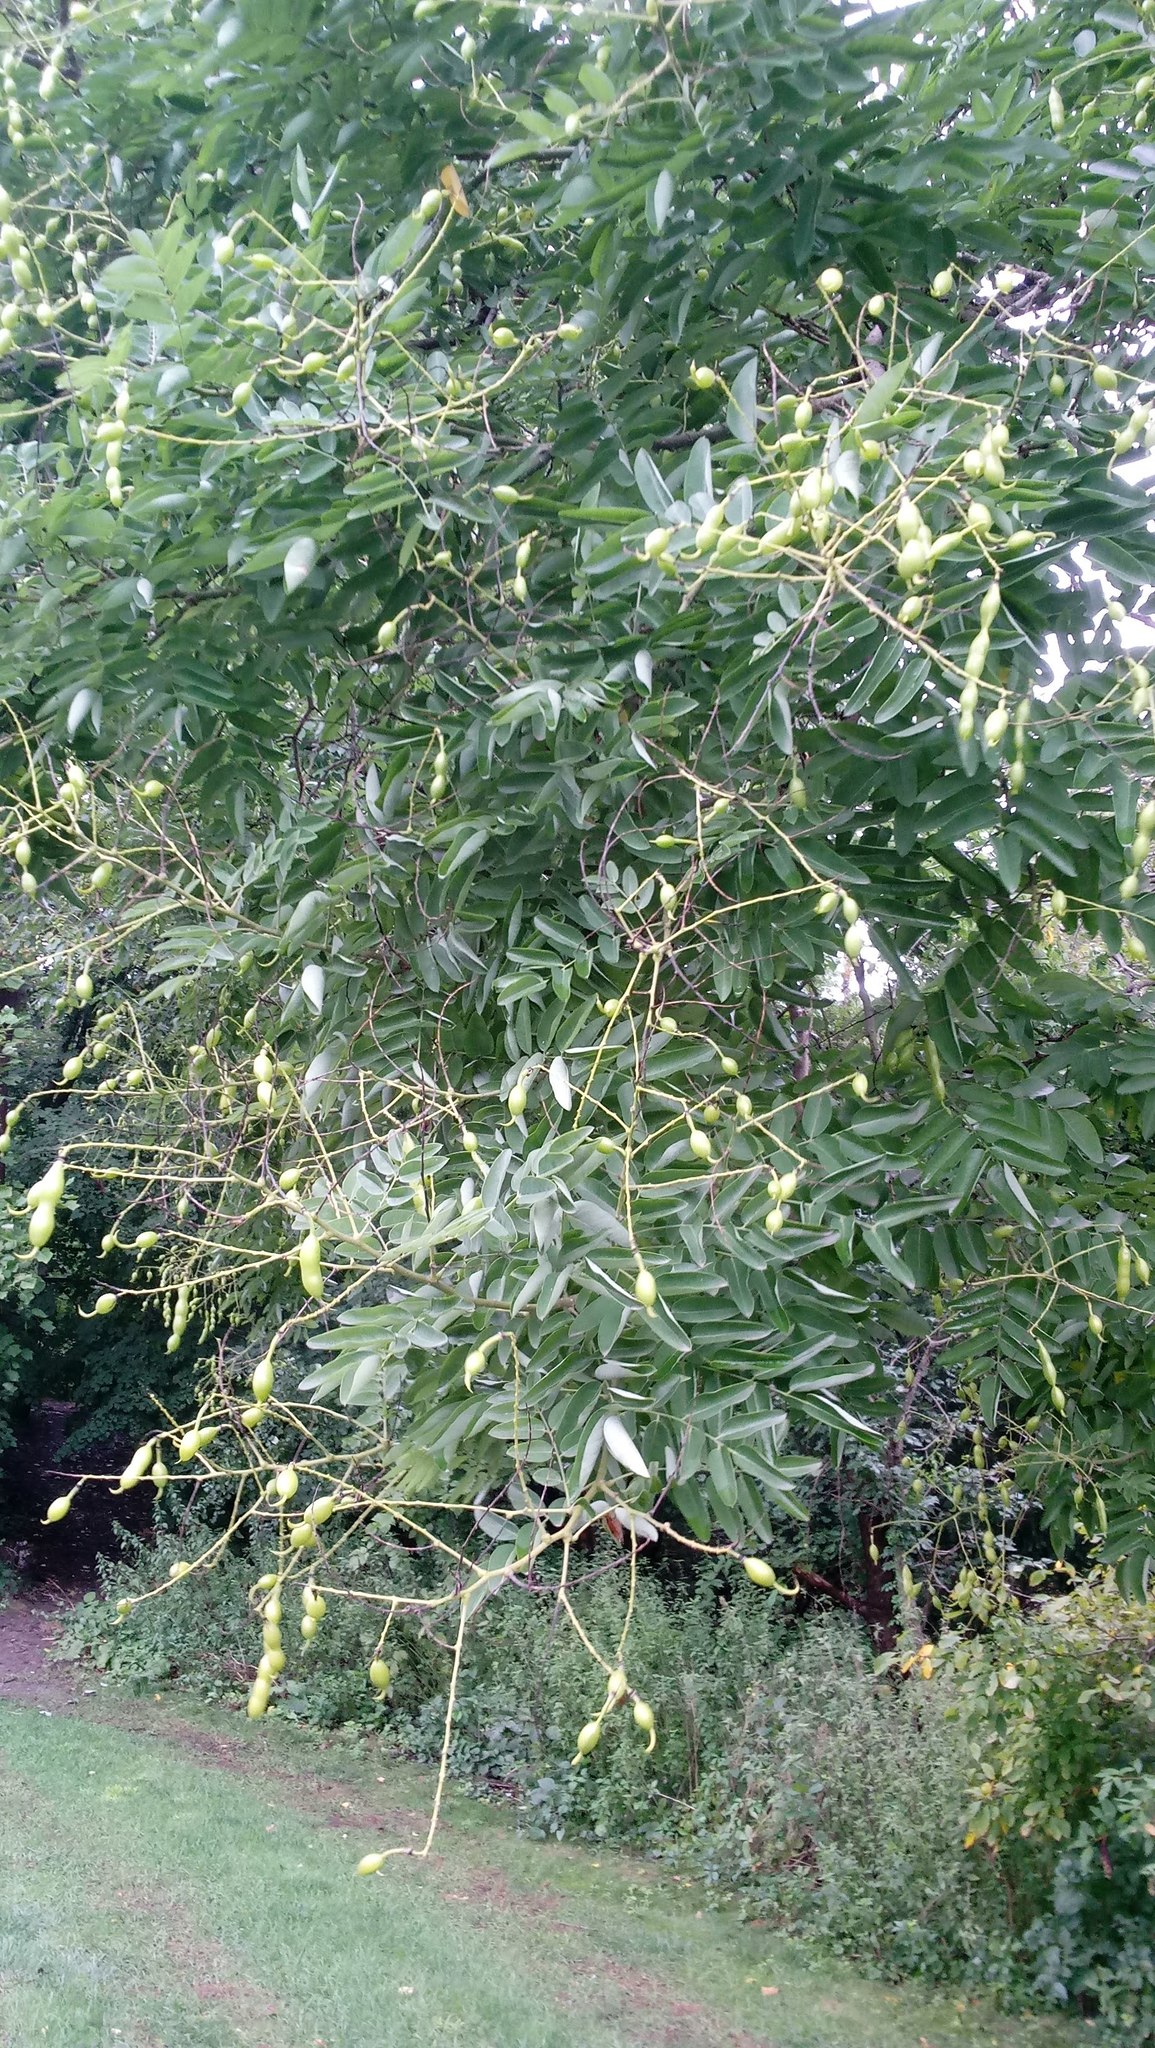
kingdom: Plantae
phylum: Tracheophyta
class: Magnoliopsida
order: Fabales
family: Fabaceae
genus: Styphnolobium
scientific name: Styphnolobium japonicum
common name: Chinese scholartree
